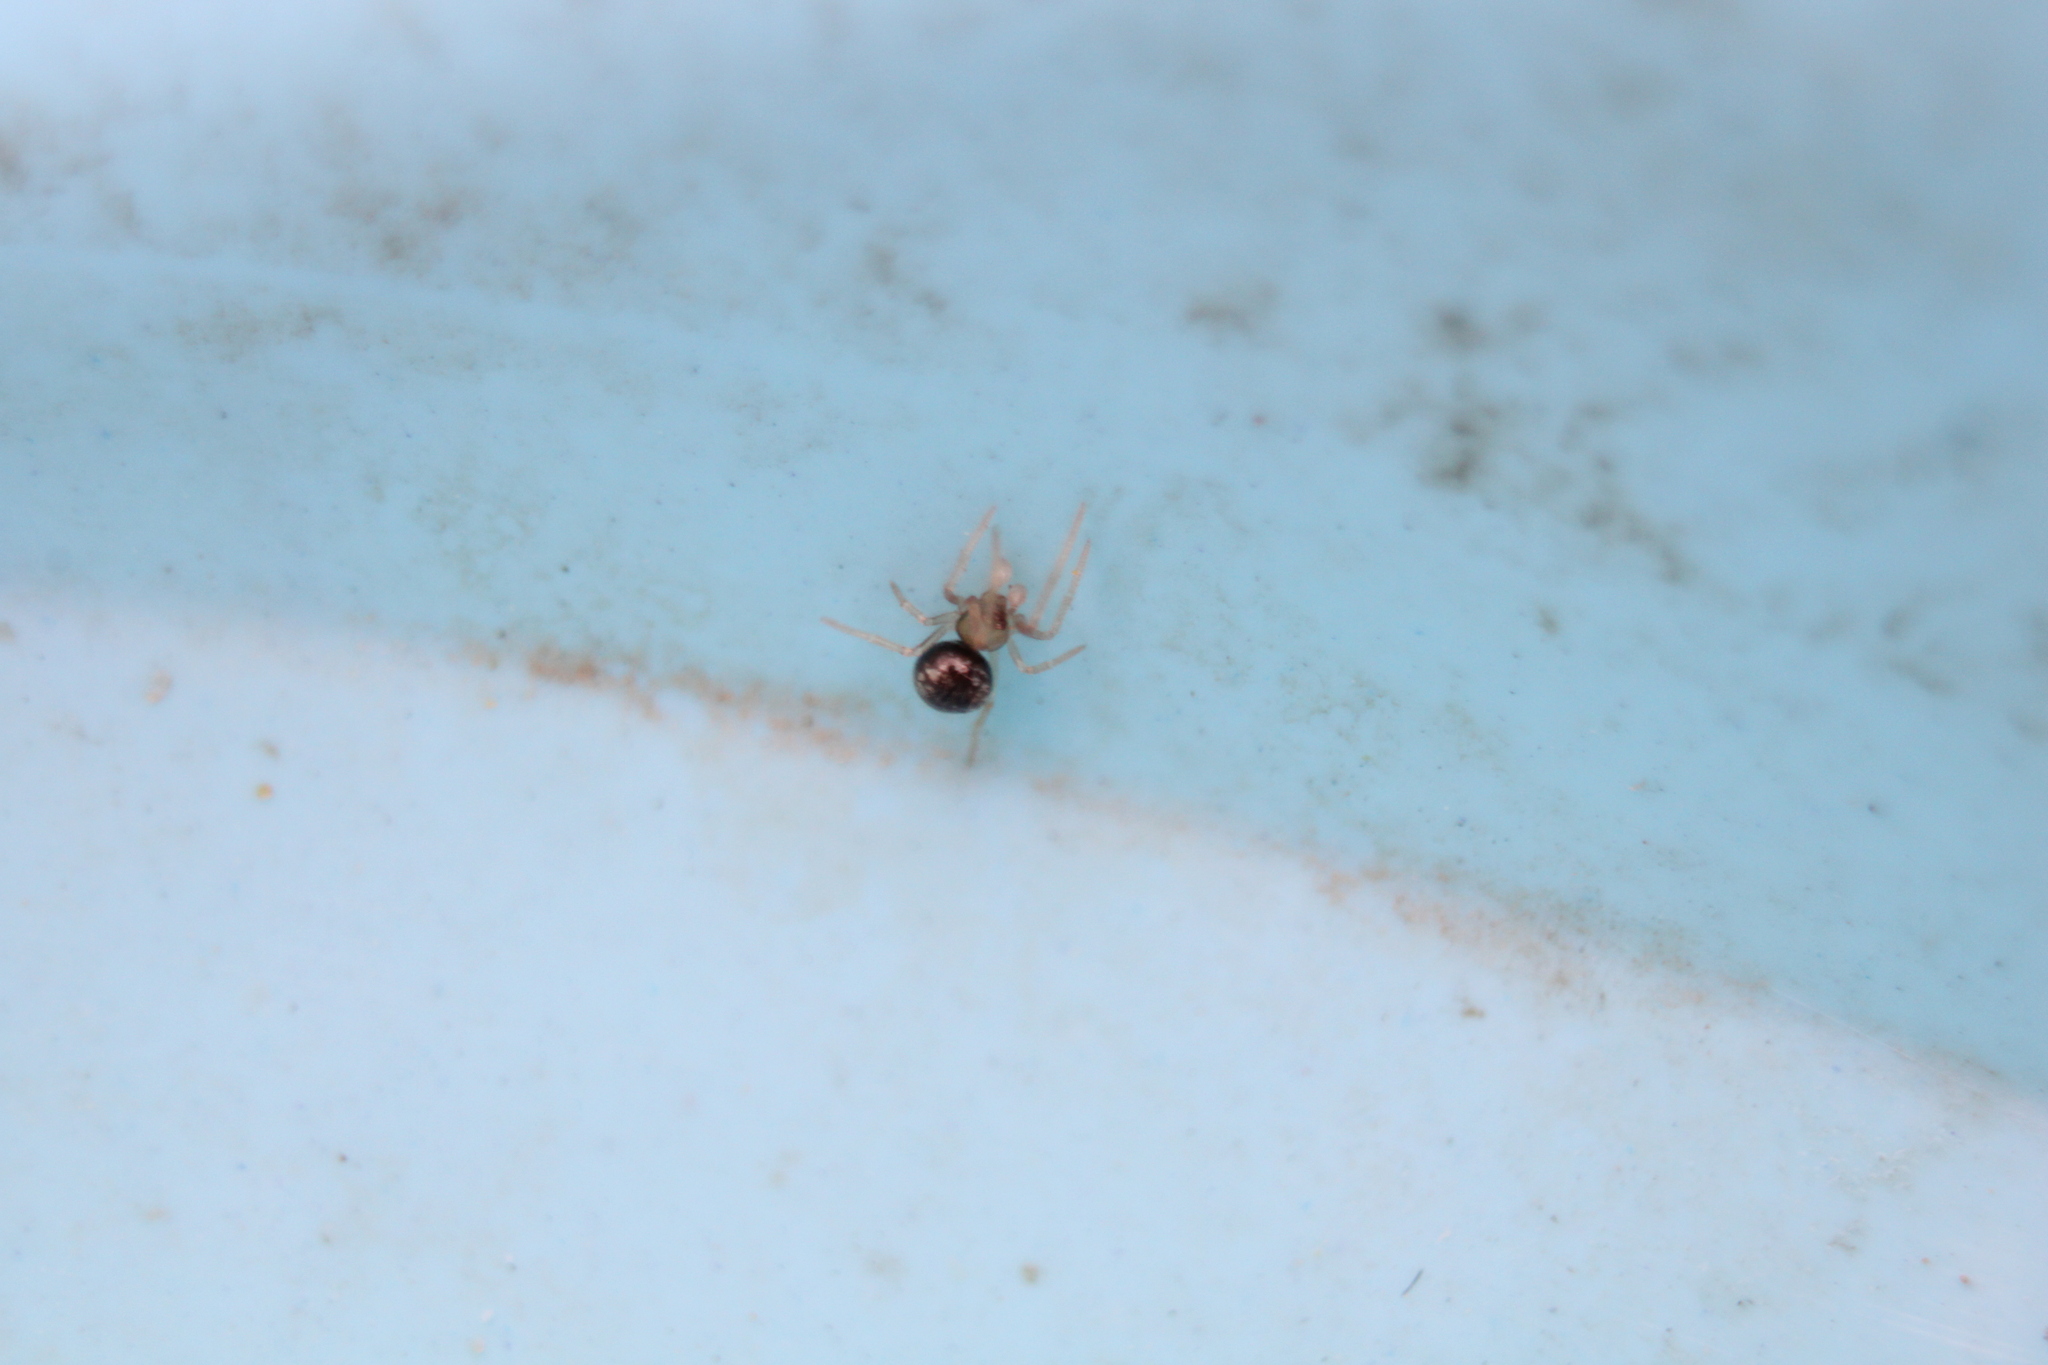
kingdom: Animalia
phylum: Arthropoda
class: Arachnida
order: Araneae
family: Theridiidae
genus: Theridion
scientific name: Theridion cheimatos
